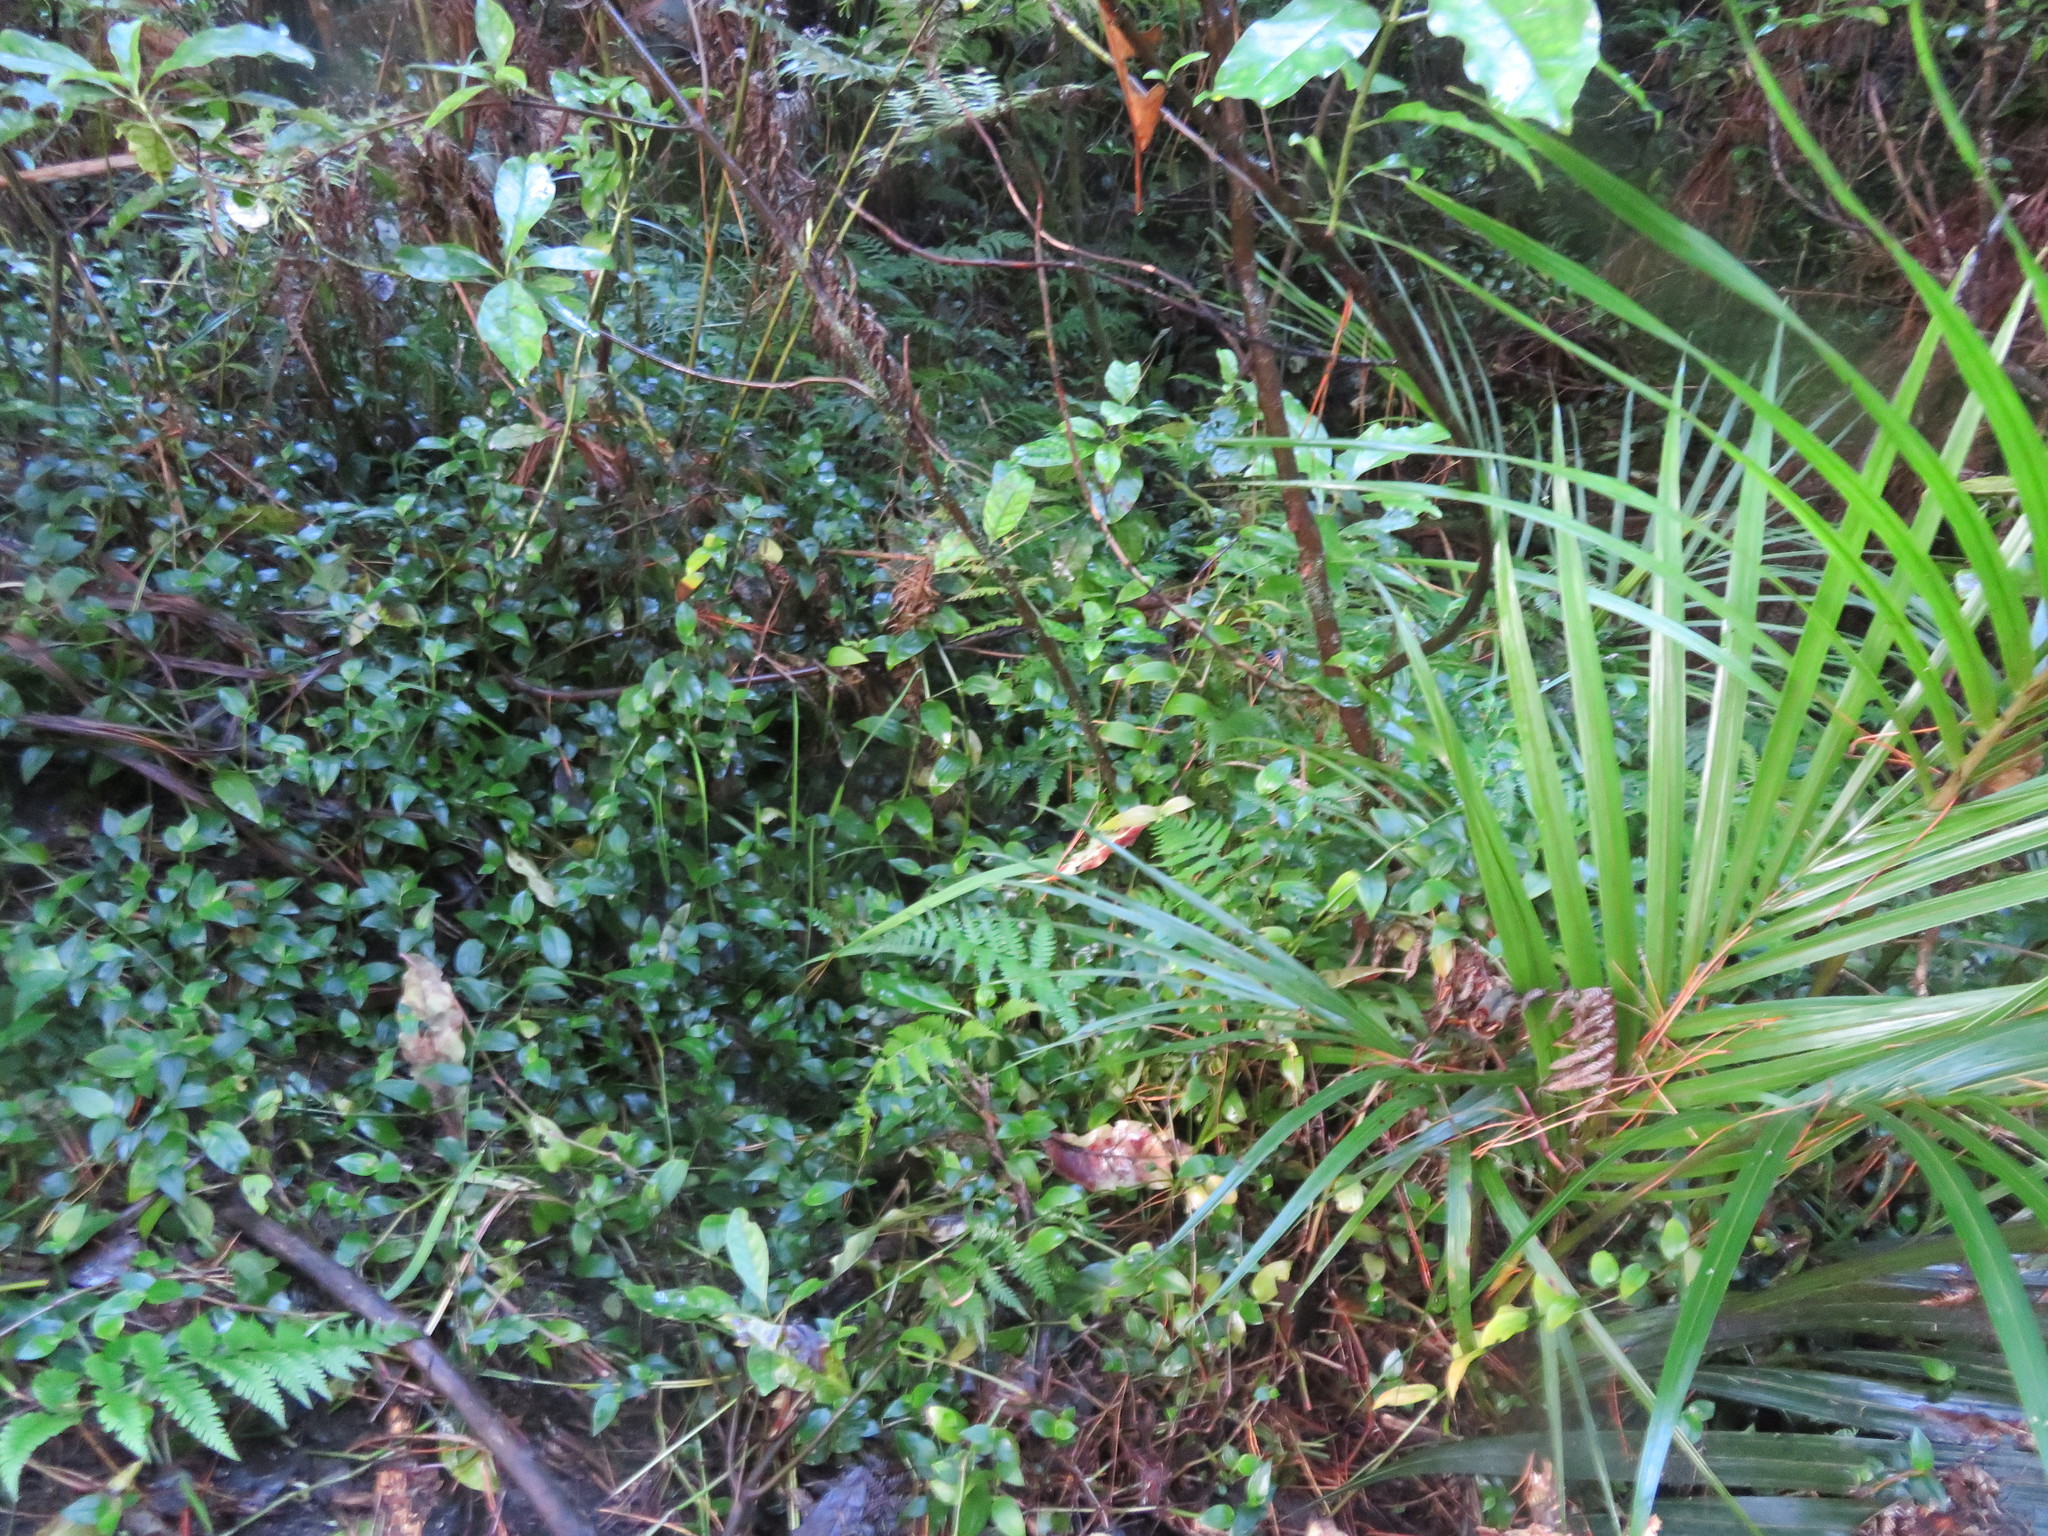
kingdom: Plantae
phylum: Tracheophyta
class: Liliopsida
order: Commelinales
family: Commelinaceae
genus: Tradescantia
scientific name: Tradescantia fluminensis
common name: Wandering-jew
